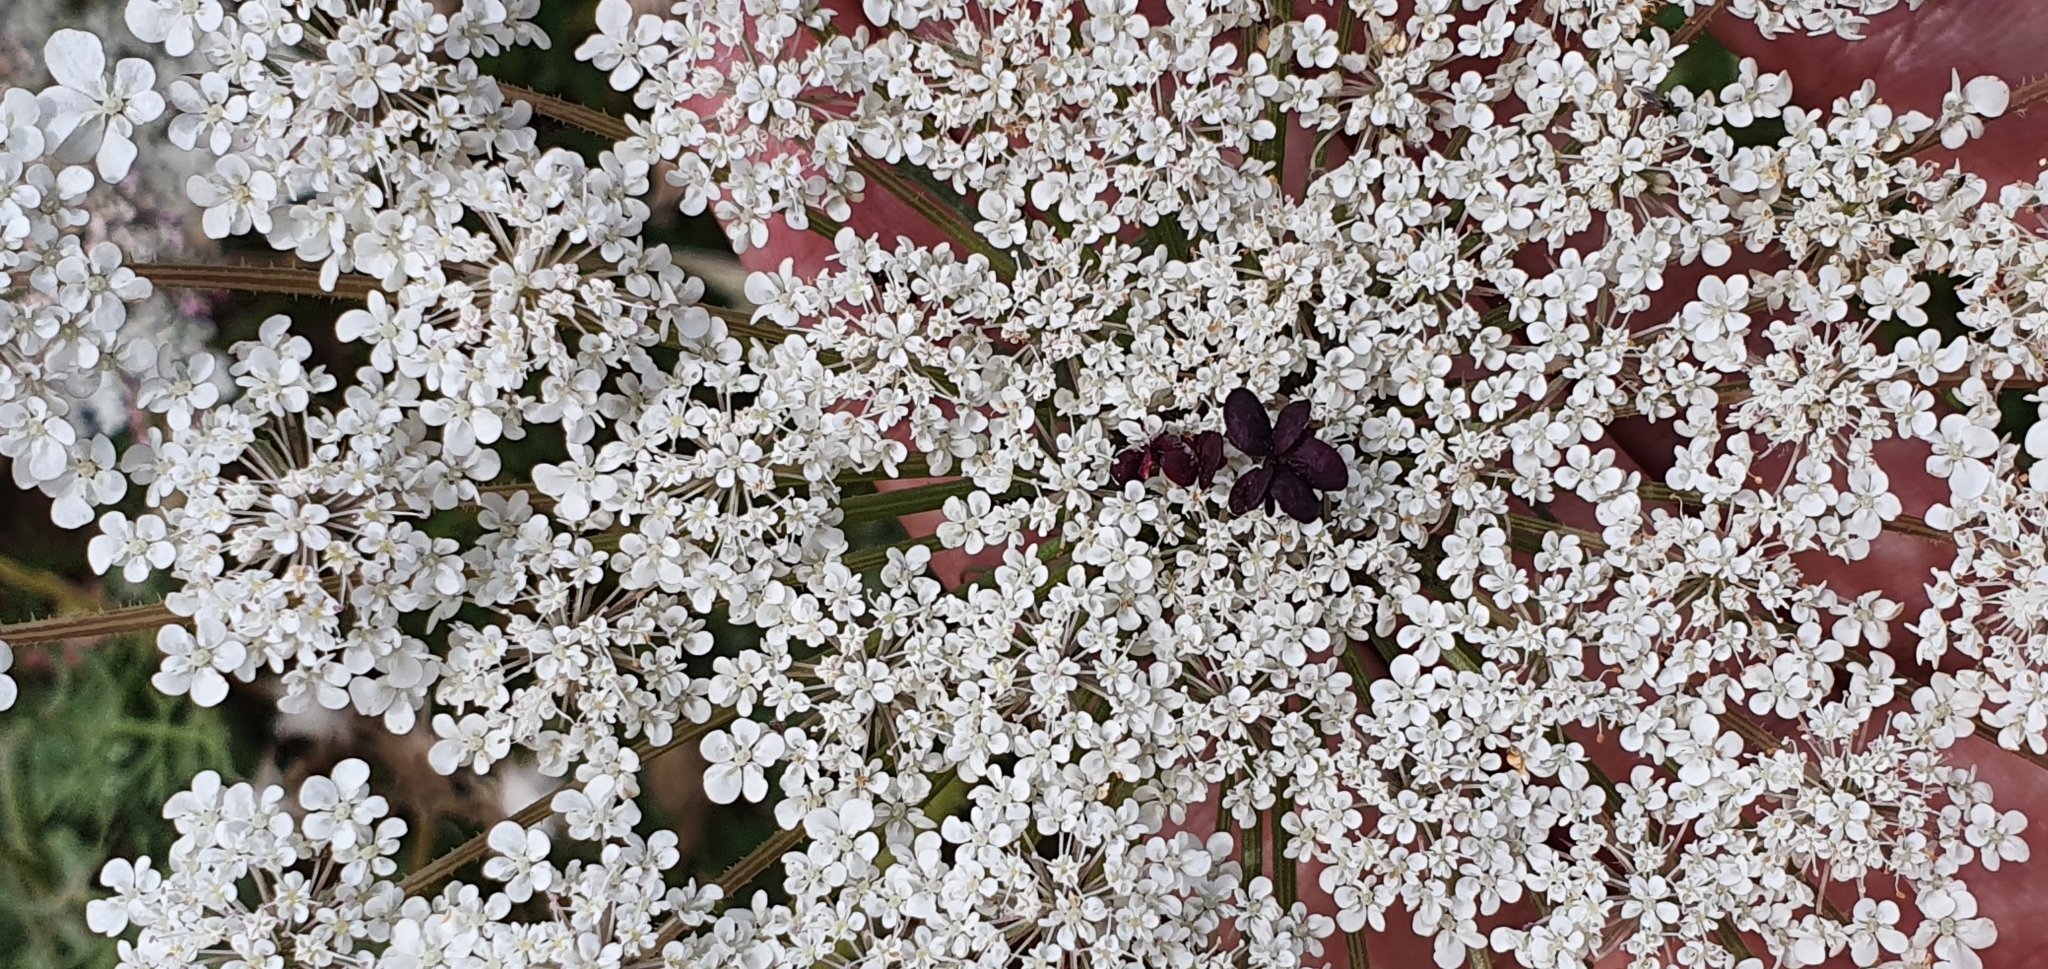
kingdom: Plantae
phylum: Tracheophyta
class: Magnoliopsida
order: Apiales
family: Apiaceae
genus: Daucus
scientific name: Daucus carota
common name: Wild carrot
